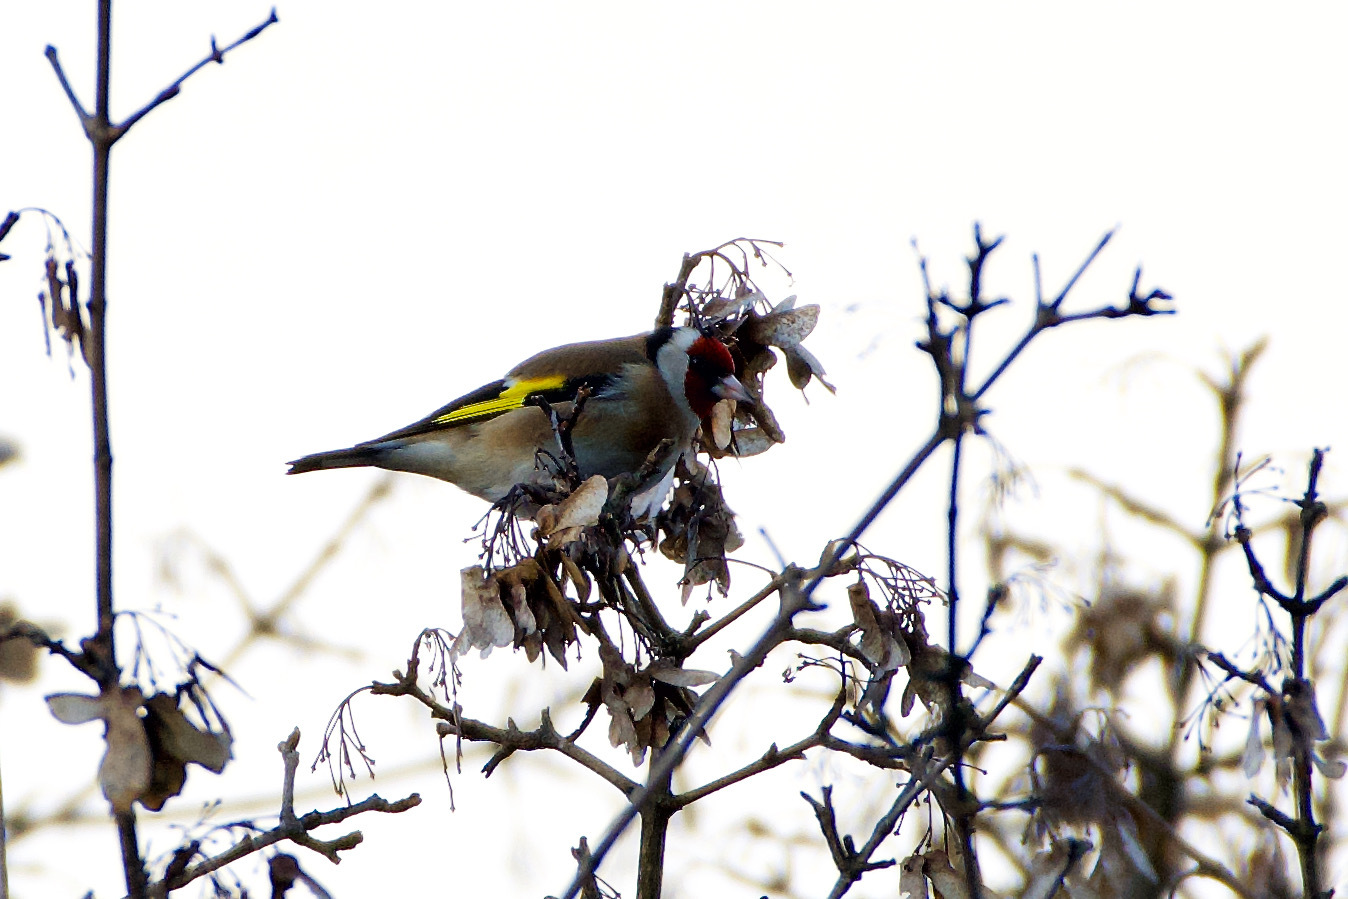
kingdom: Animalia
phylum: Chordata
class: Aves
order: Passeriformes
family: Fringillidae
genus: Carduelis
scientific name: Carduelis carduelis
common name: European goldfinch
